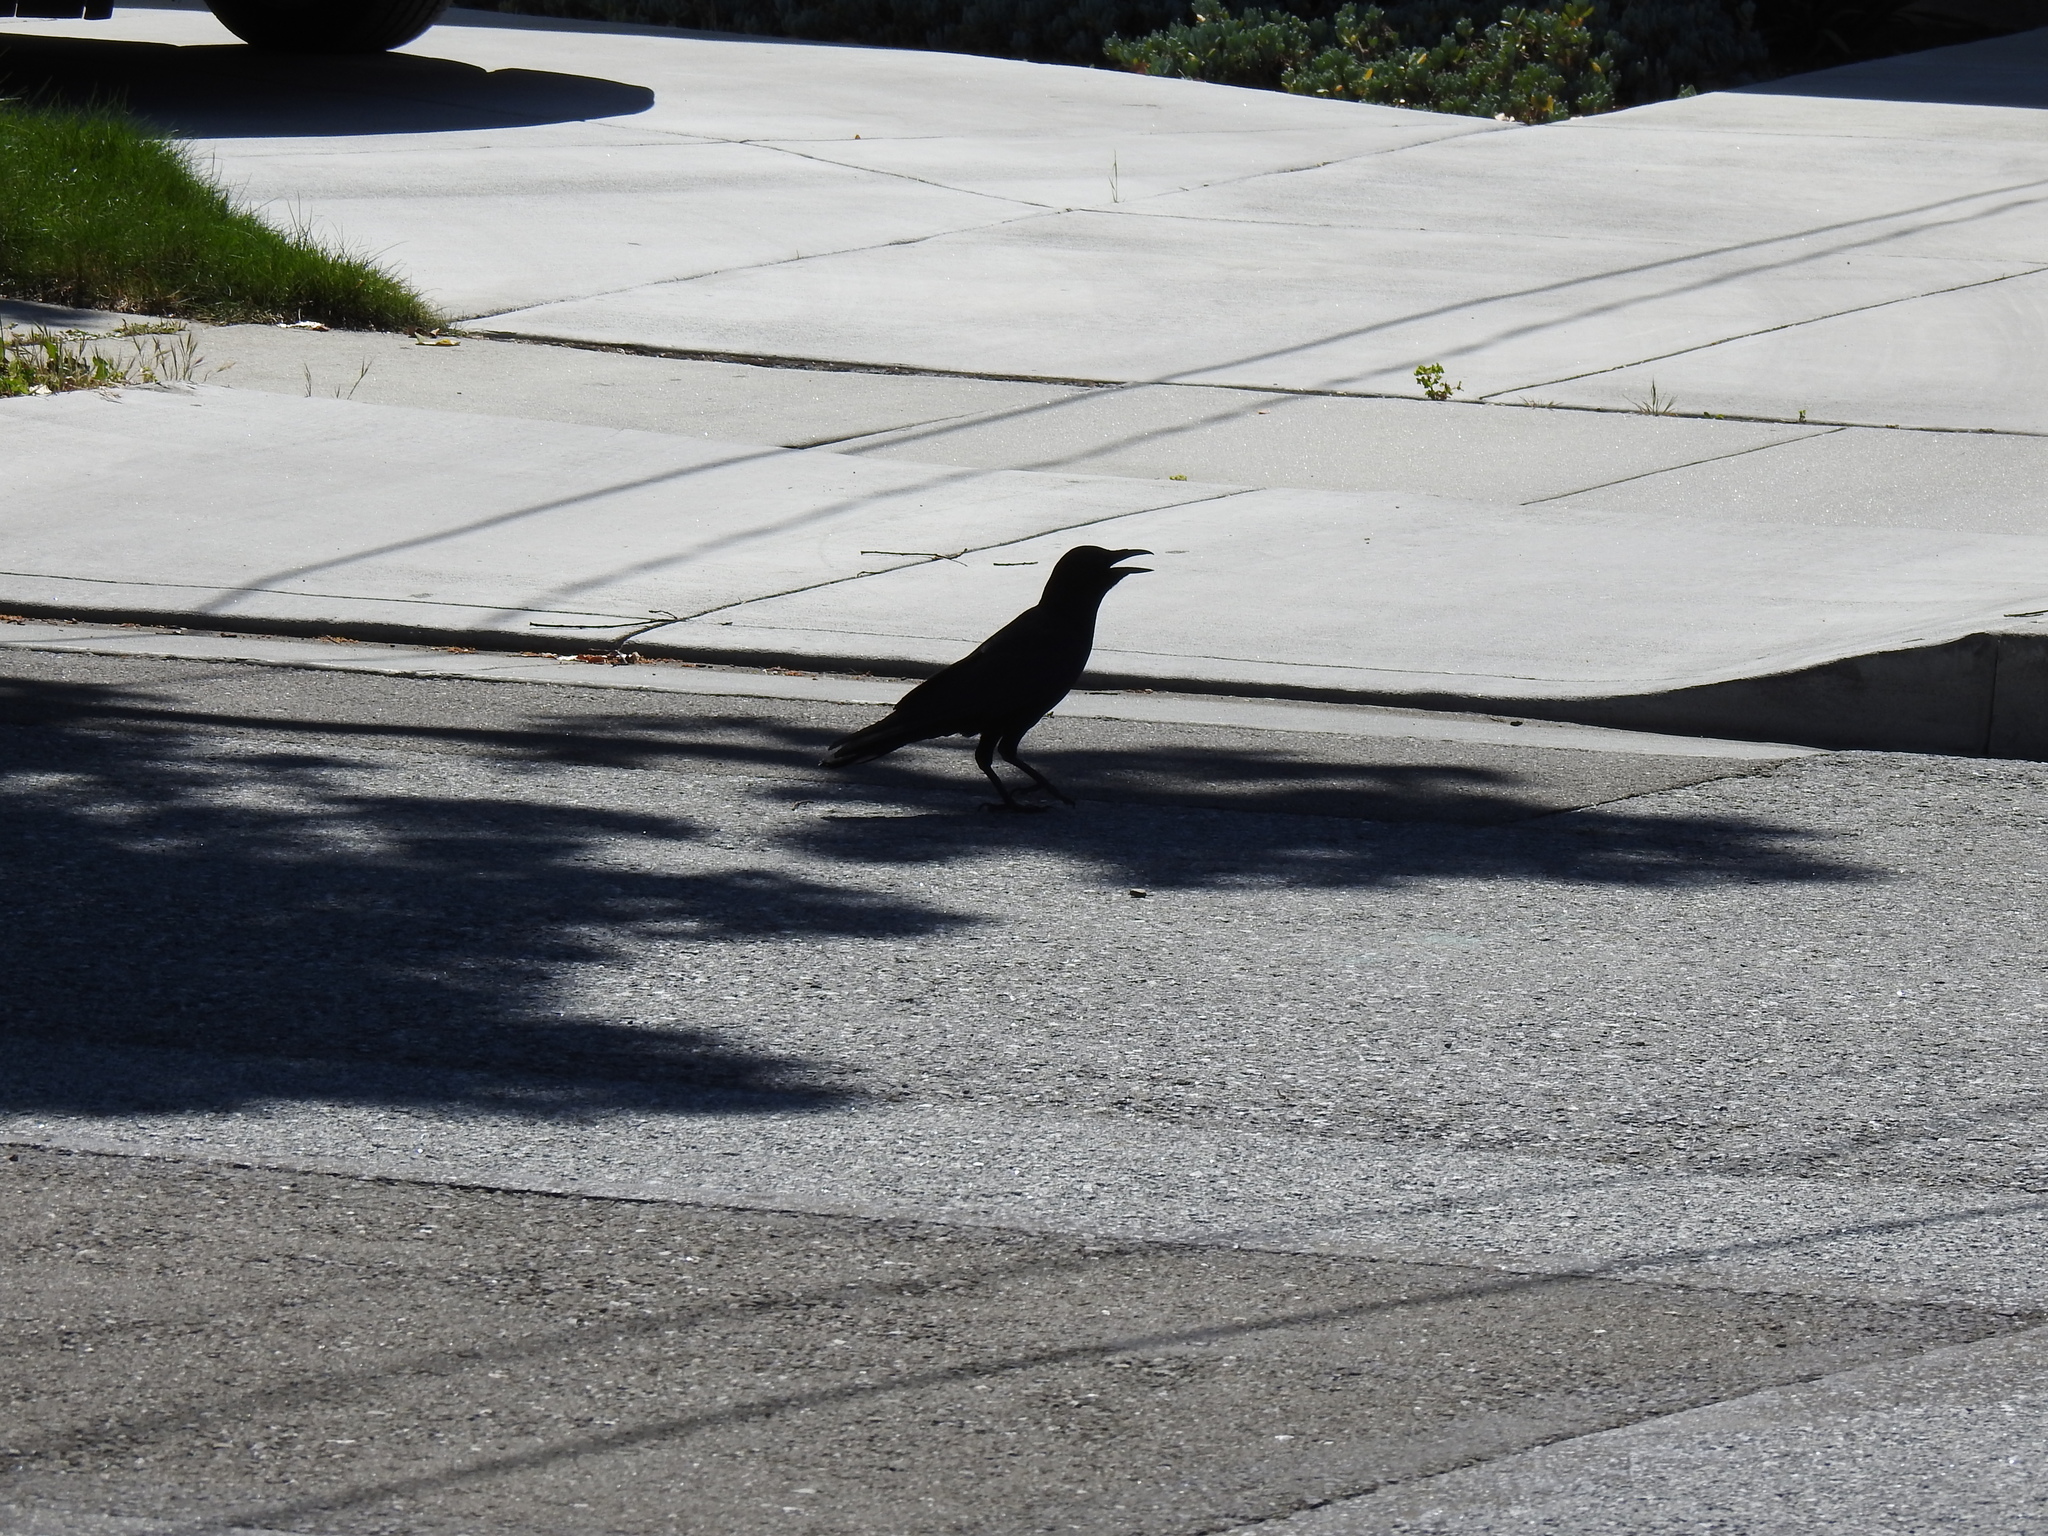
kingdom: Animalia
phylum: Chordata
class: Aves
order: Passeriformes
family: Corvidae
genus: Corvus
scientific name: Corvus brachyrhynchos
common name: American crow
